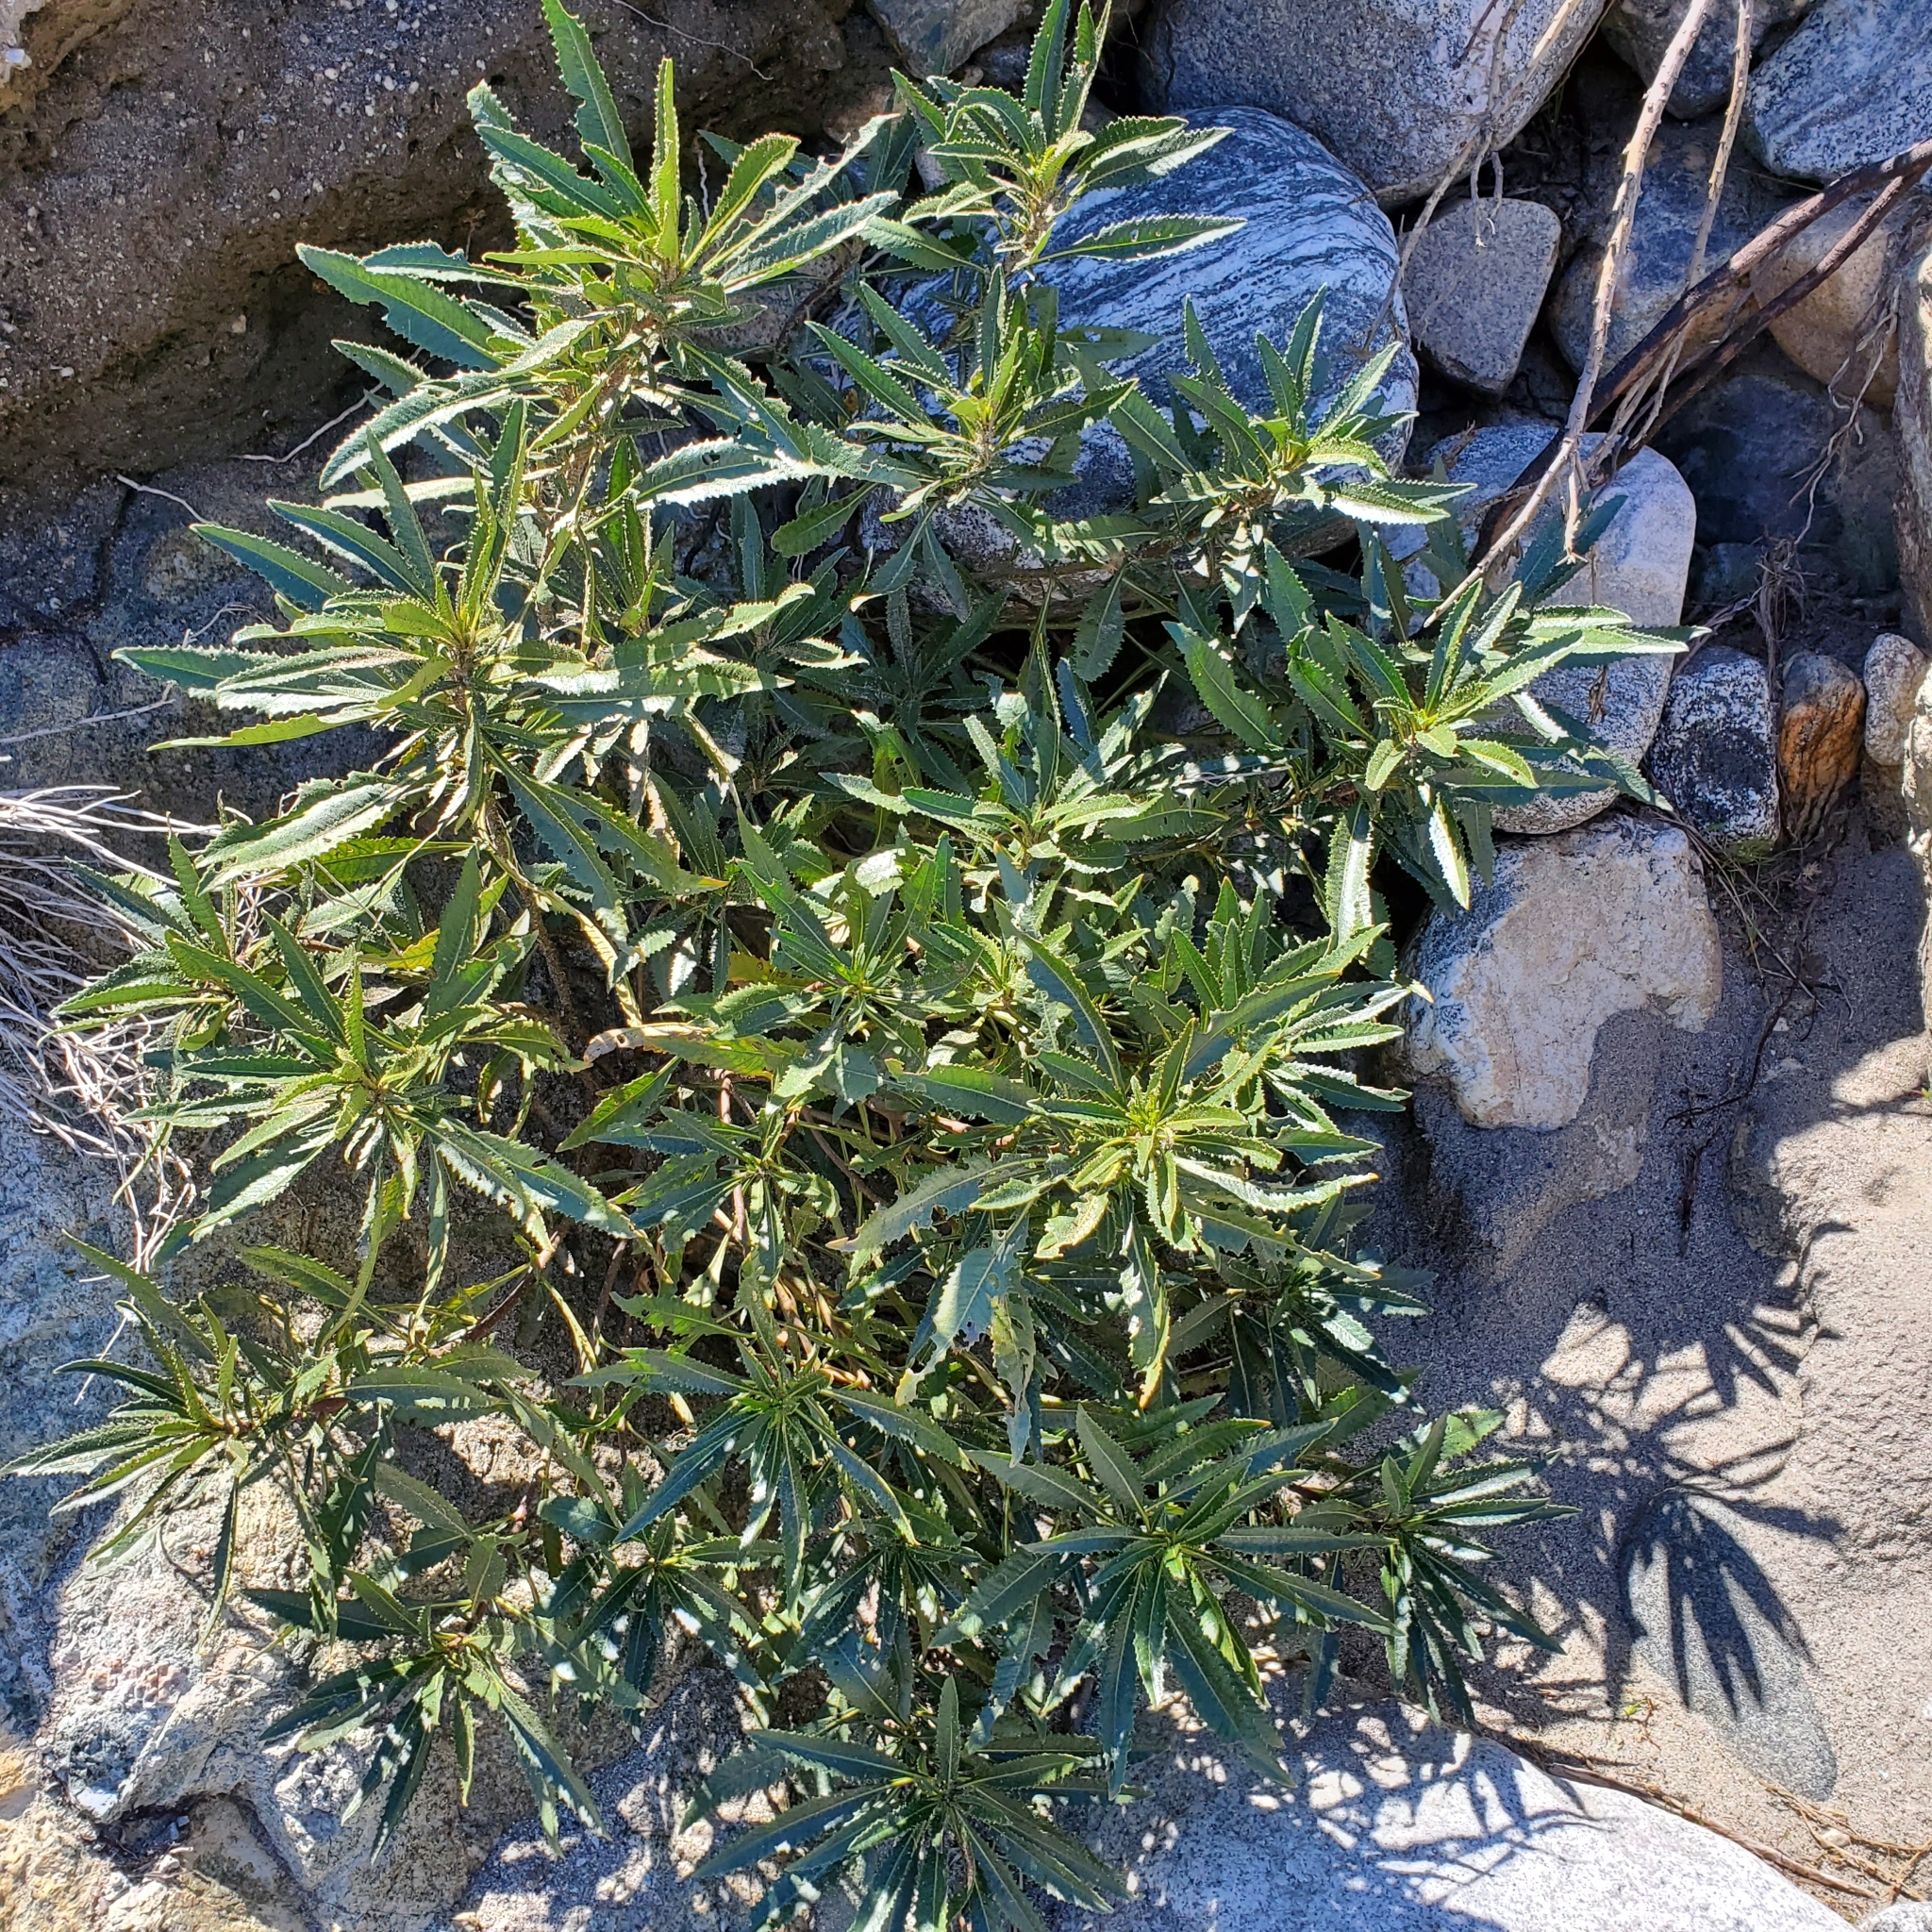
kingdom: Plantae
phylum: Tracheophyta
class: Magnoliopsida
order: Boraginales
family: Namaceae
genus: Eriodictyon
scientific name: Eriodictyon trichocalyx
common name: Hairy yerba-santa
